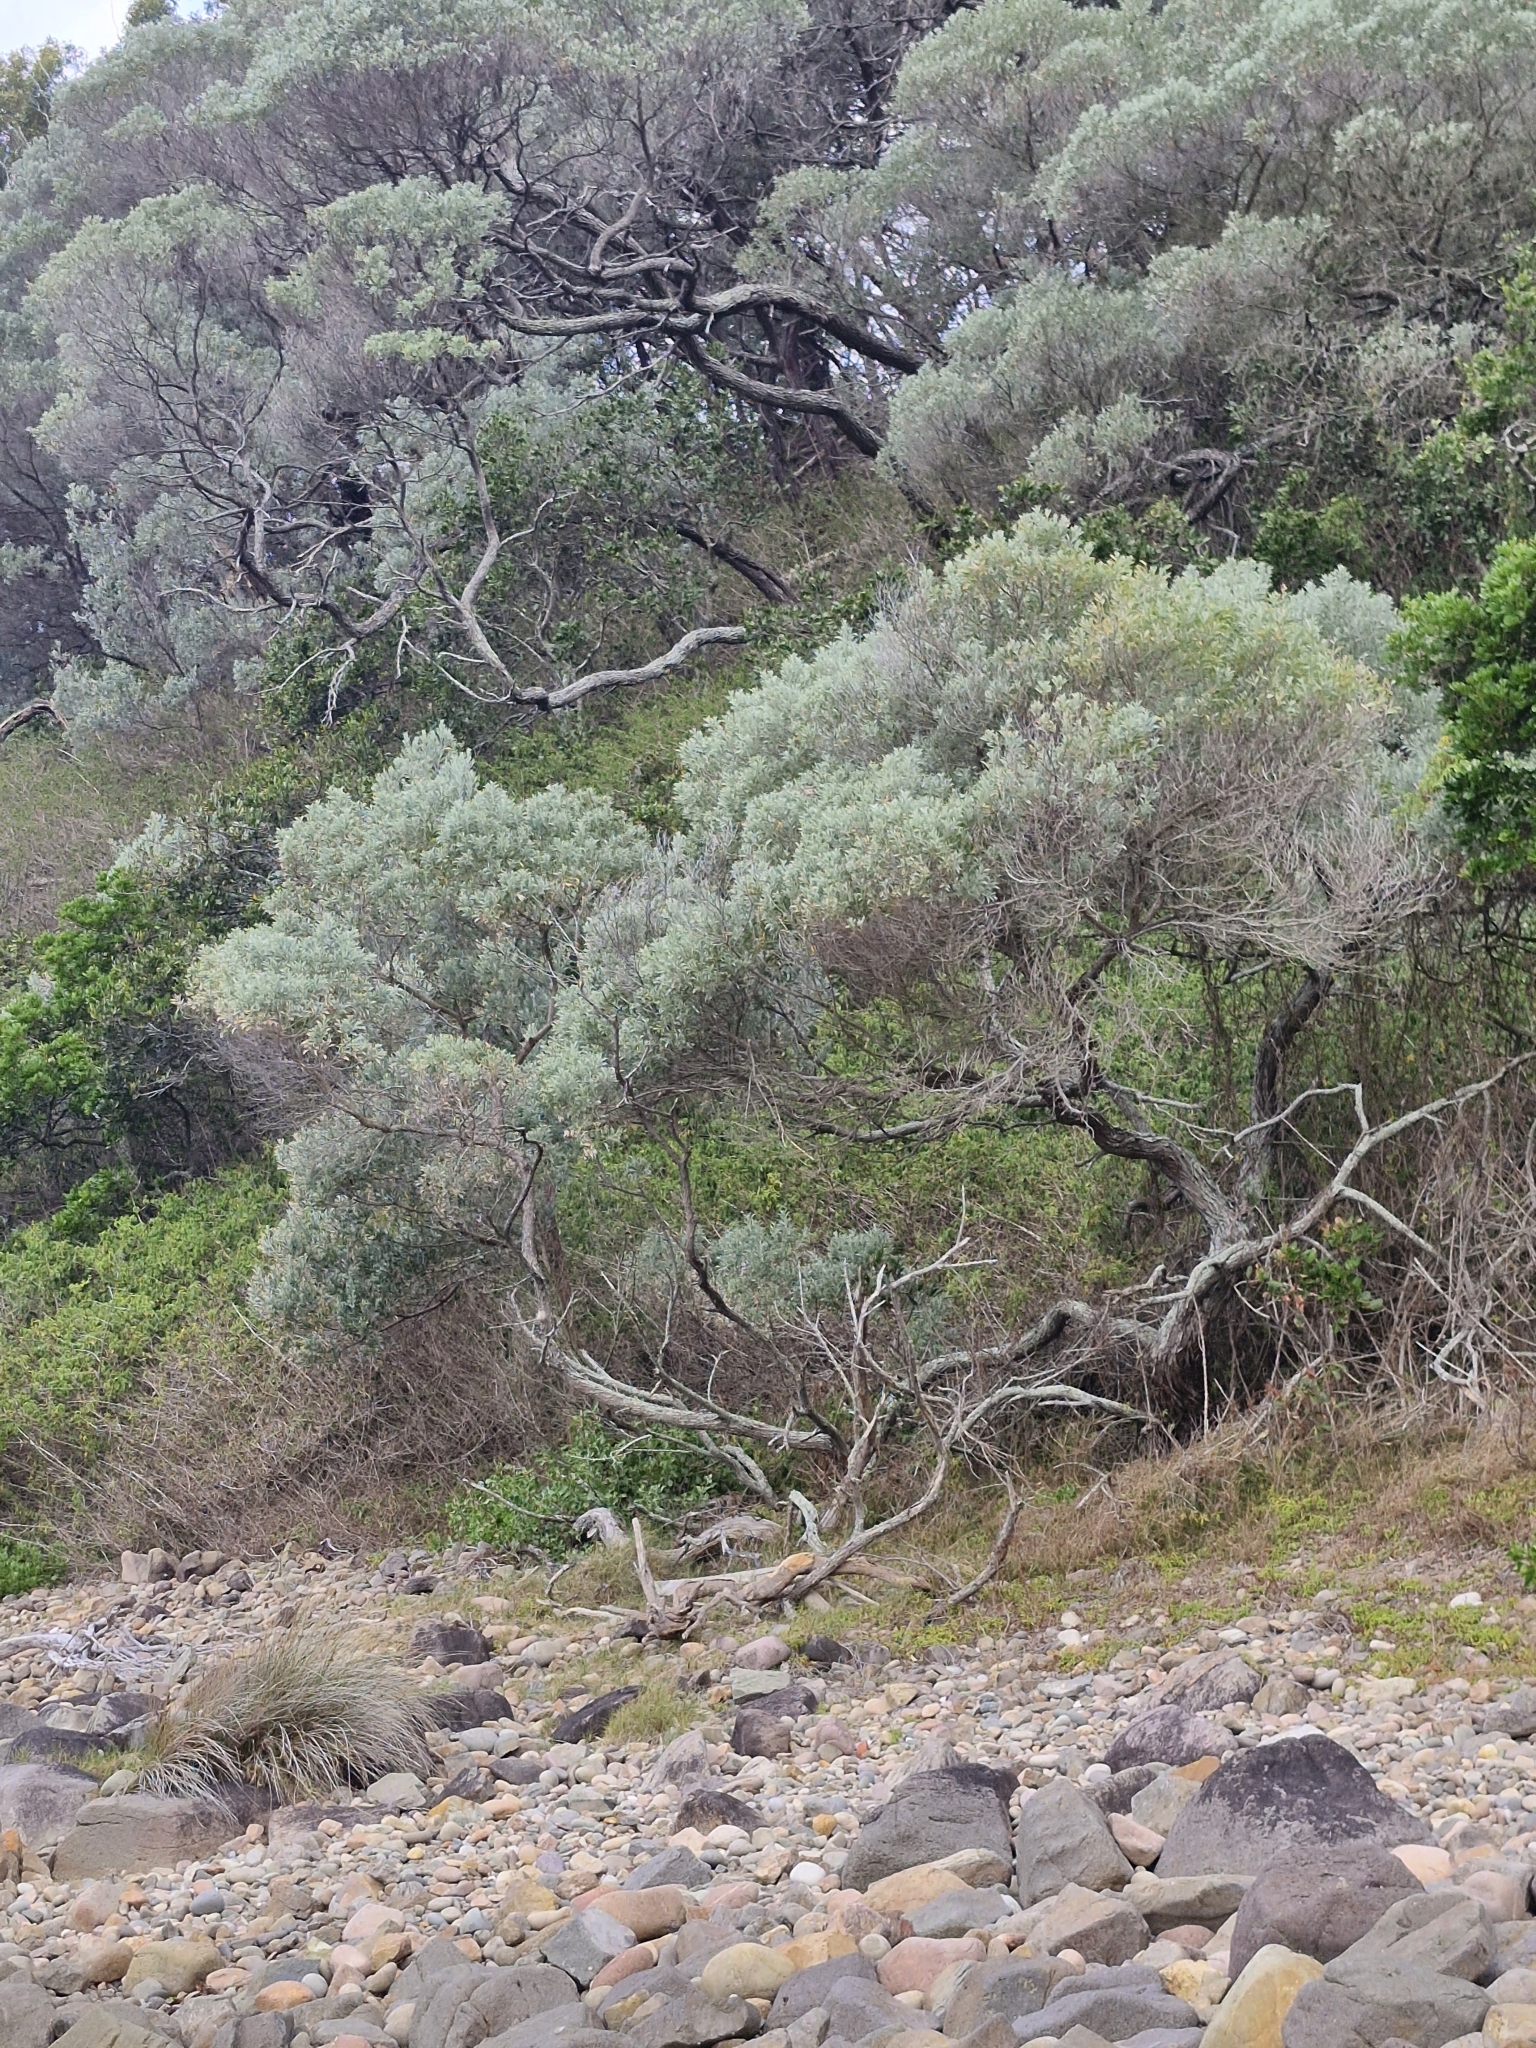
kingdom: Plantae
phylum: Tracheophyta
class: Magnoliopsida
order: Fabales
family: Fabaceae
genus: Acacia
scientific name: Acacia binervia
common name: Coast myall
